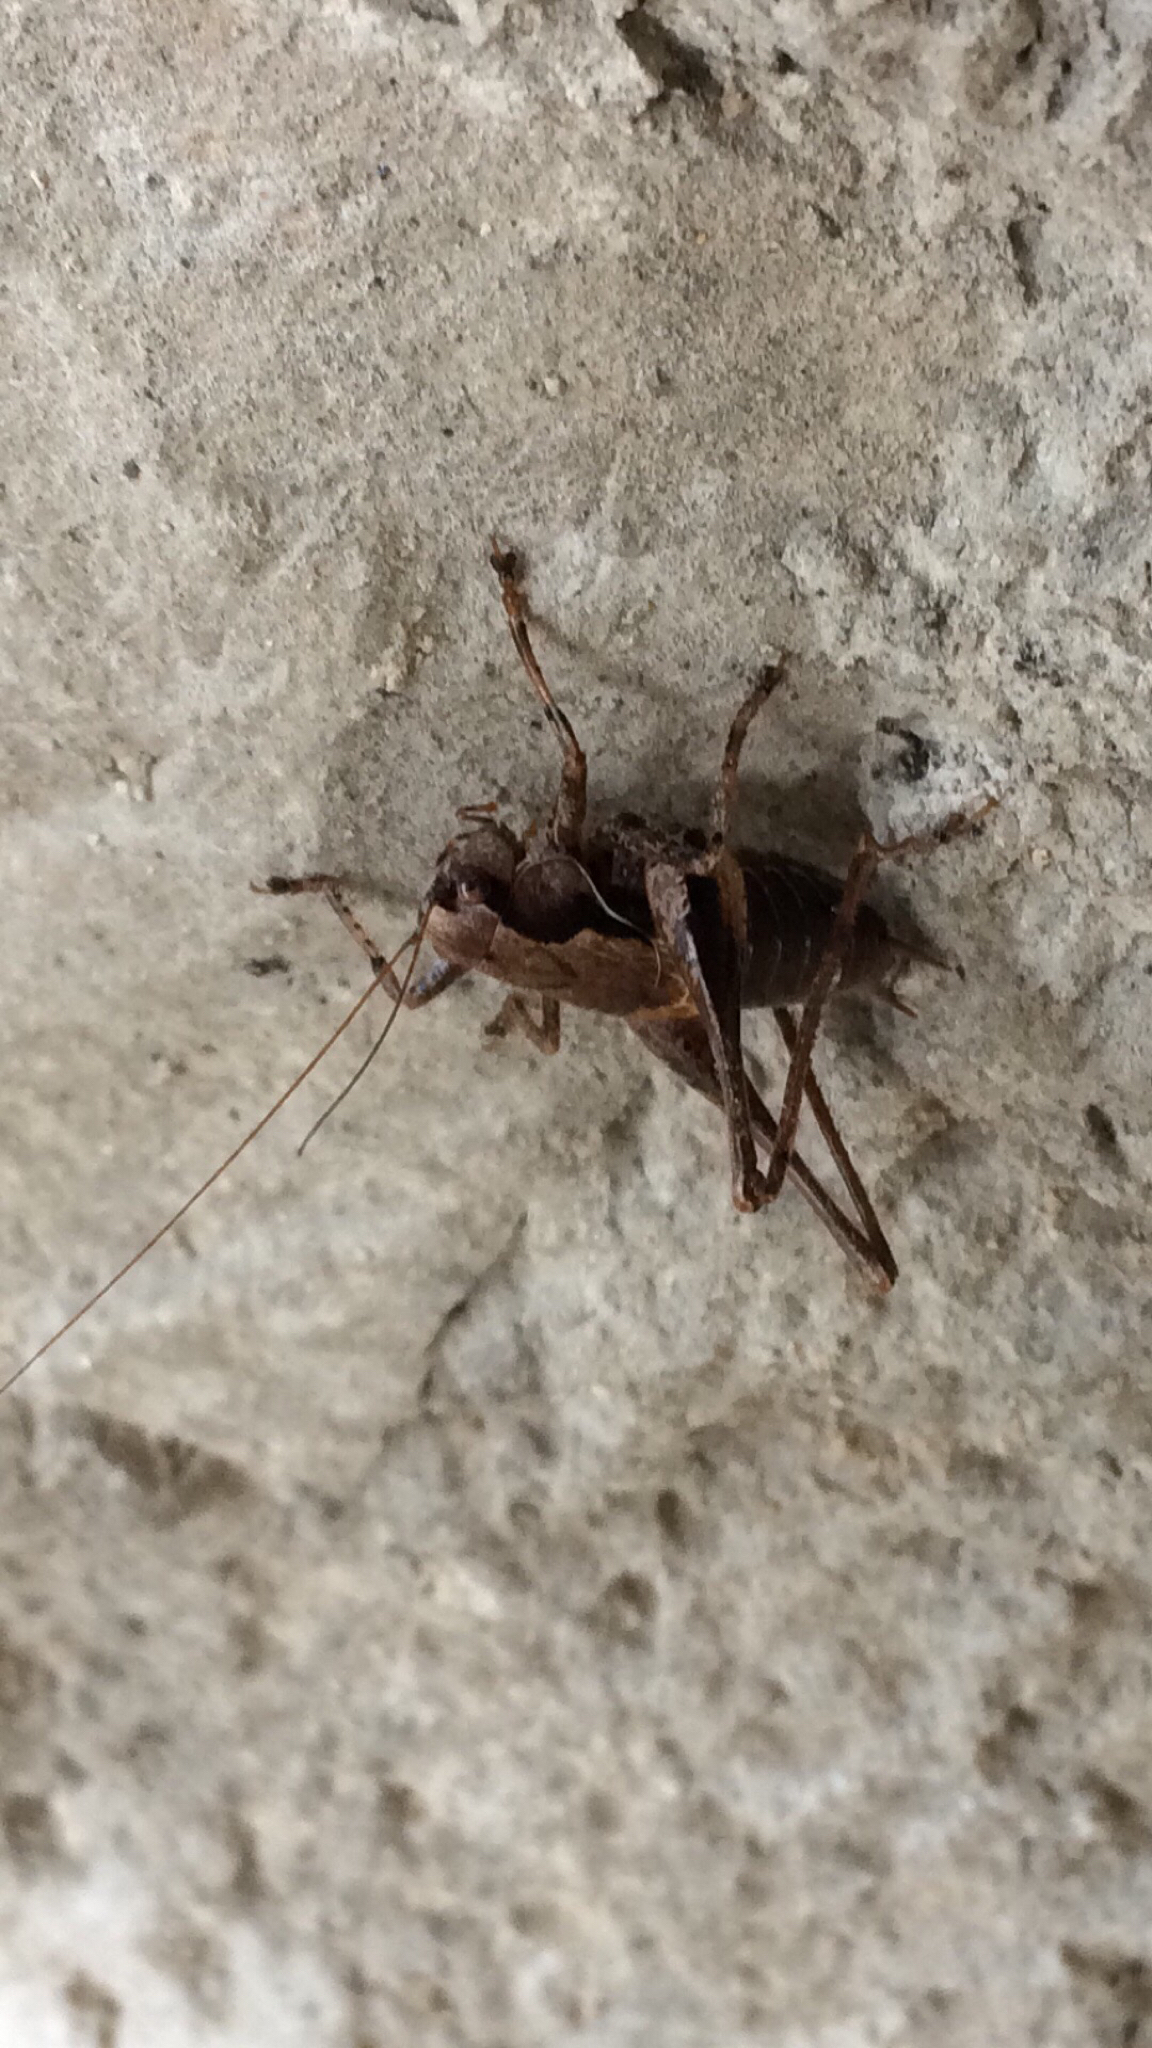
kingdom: Animalia
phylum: Arthropoda
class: Insecta
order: Orthoptera
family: Tettigoniidae
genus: Pholidoptera
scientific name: Pholidoptera griseoaptera
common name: Dark bush-cricket
